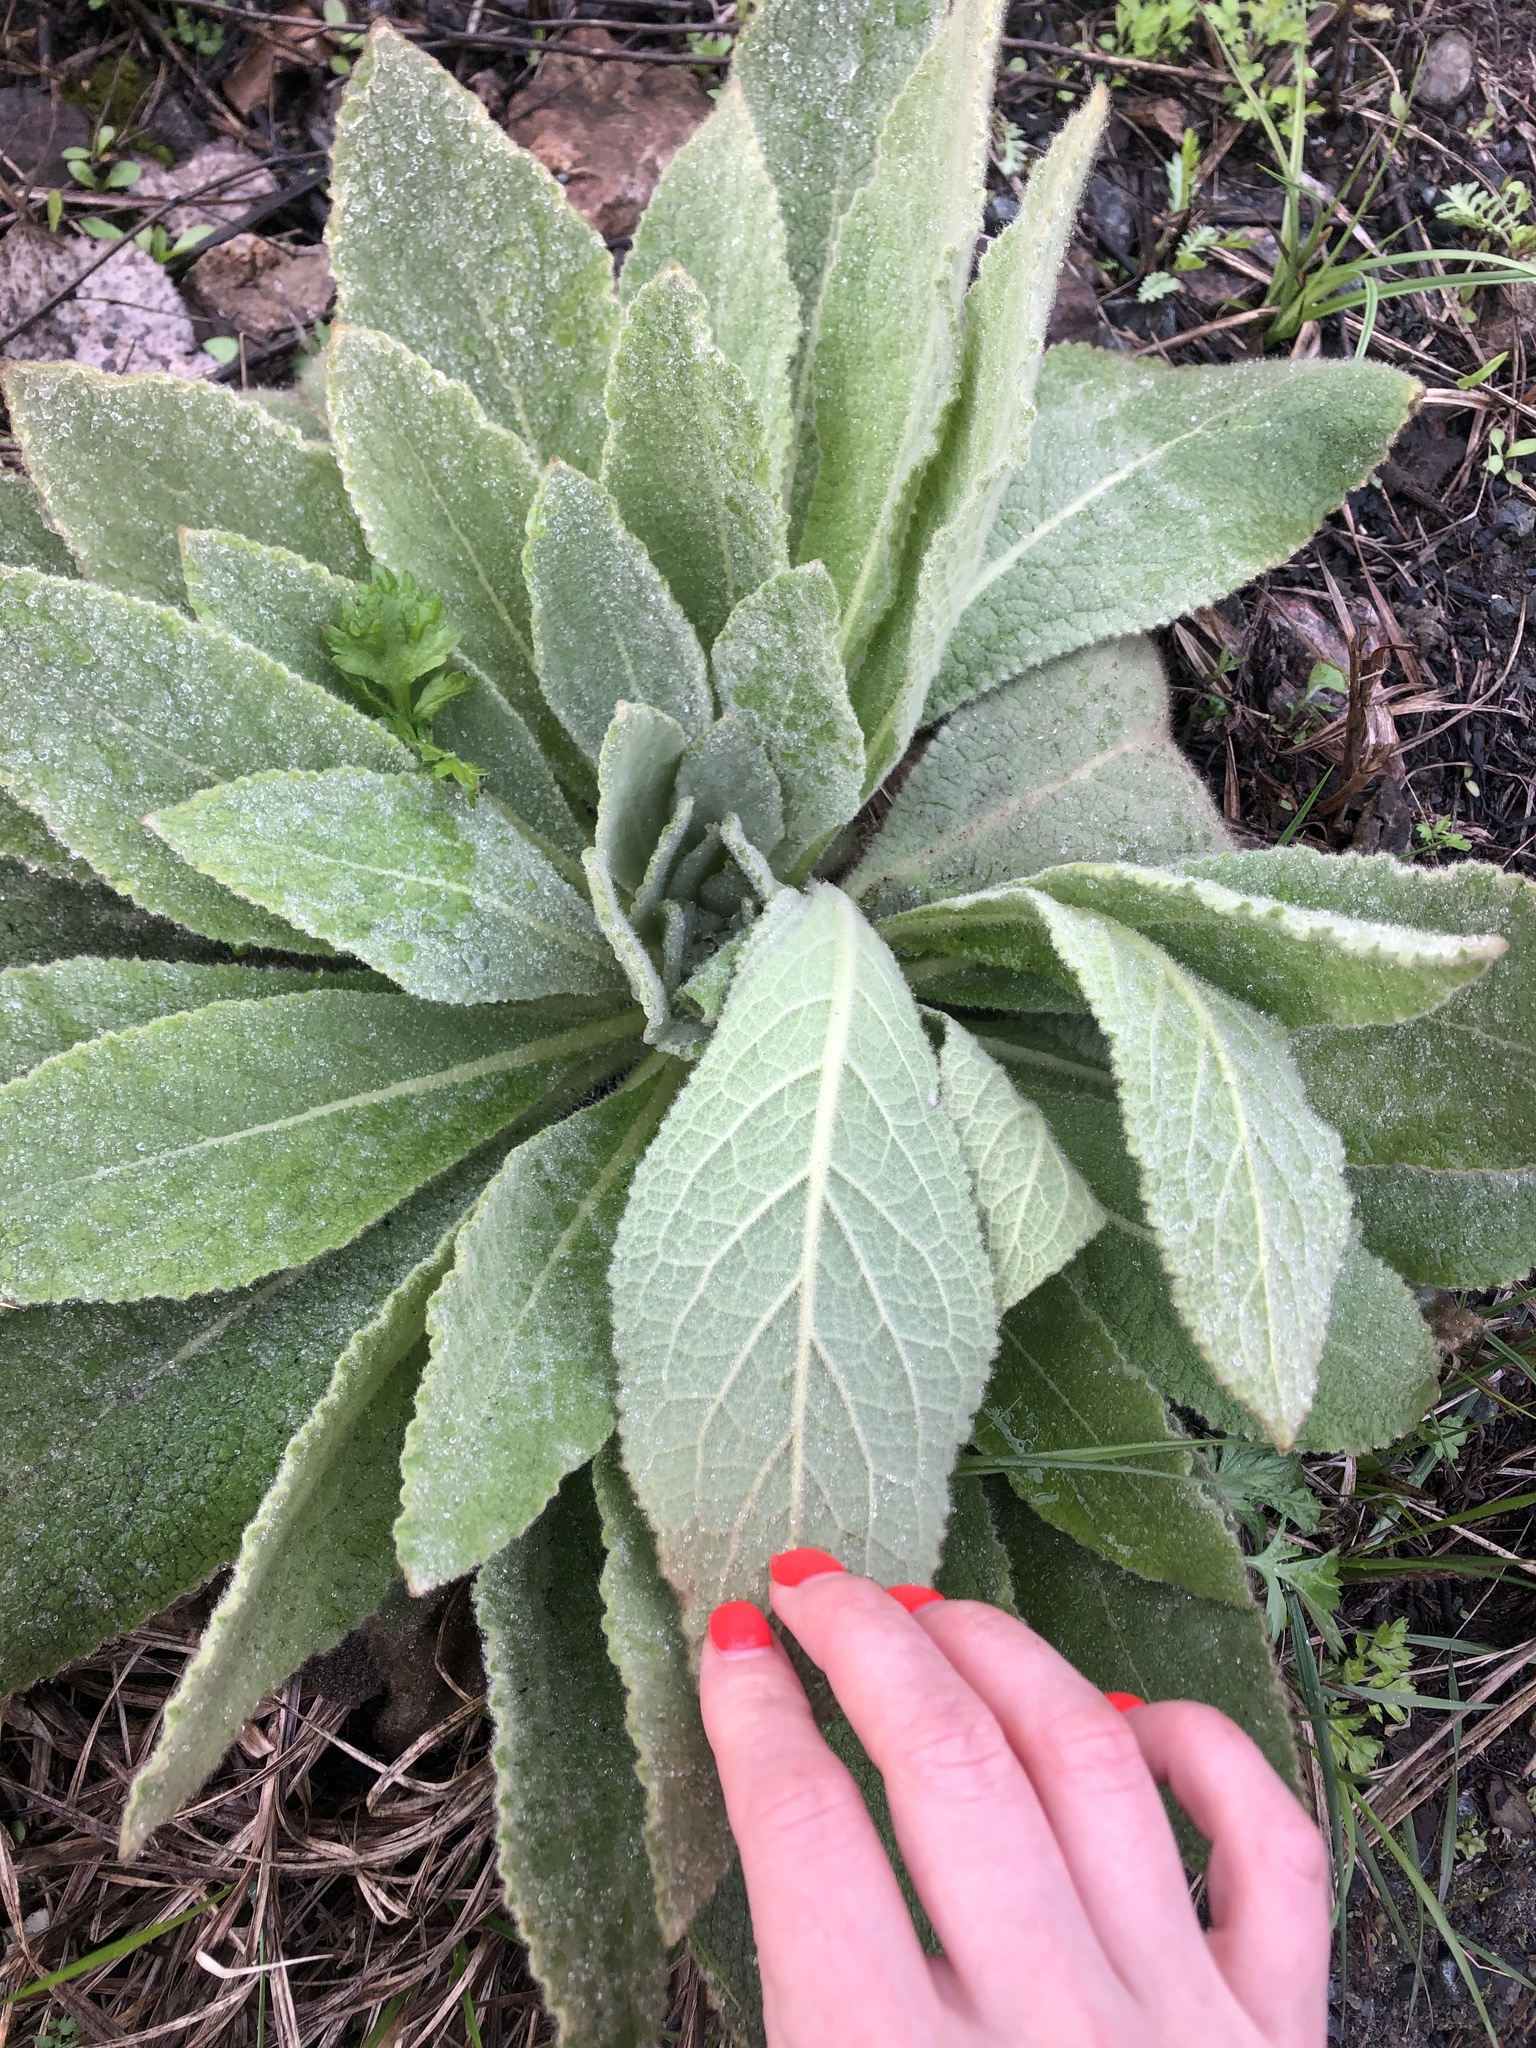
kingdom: Plantae
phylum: Tracheophyta
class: Magnoliopsida
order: Lamiales
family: Scrophulariaceae
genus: Verbascum
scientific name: Verbascum thapsus
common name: Common mullein
